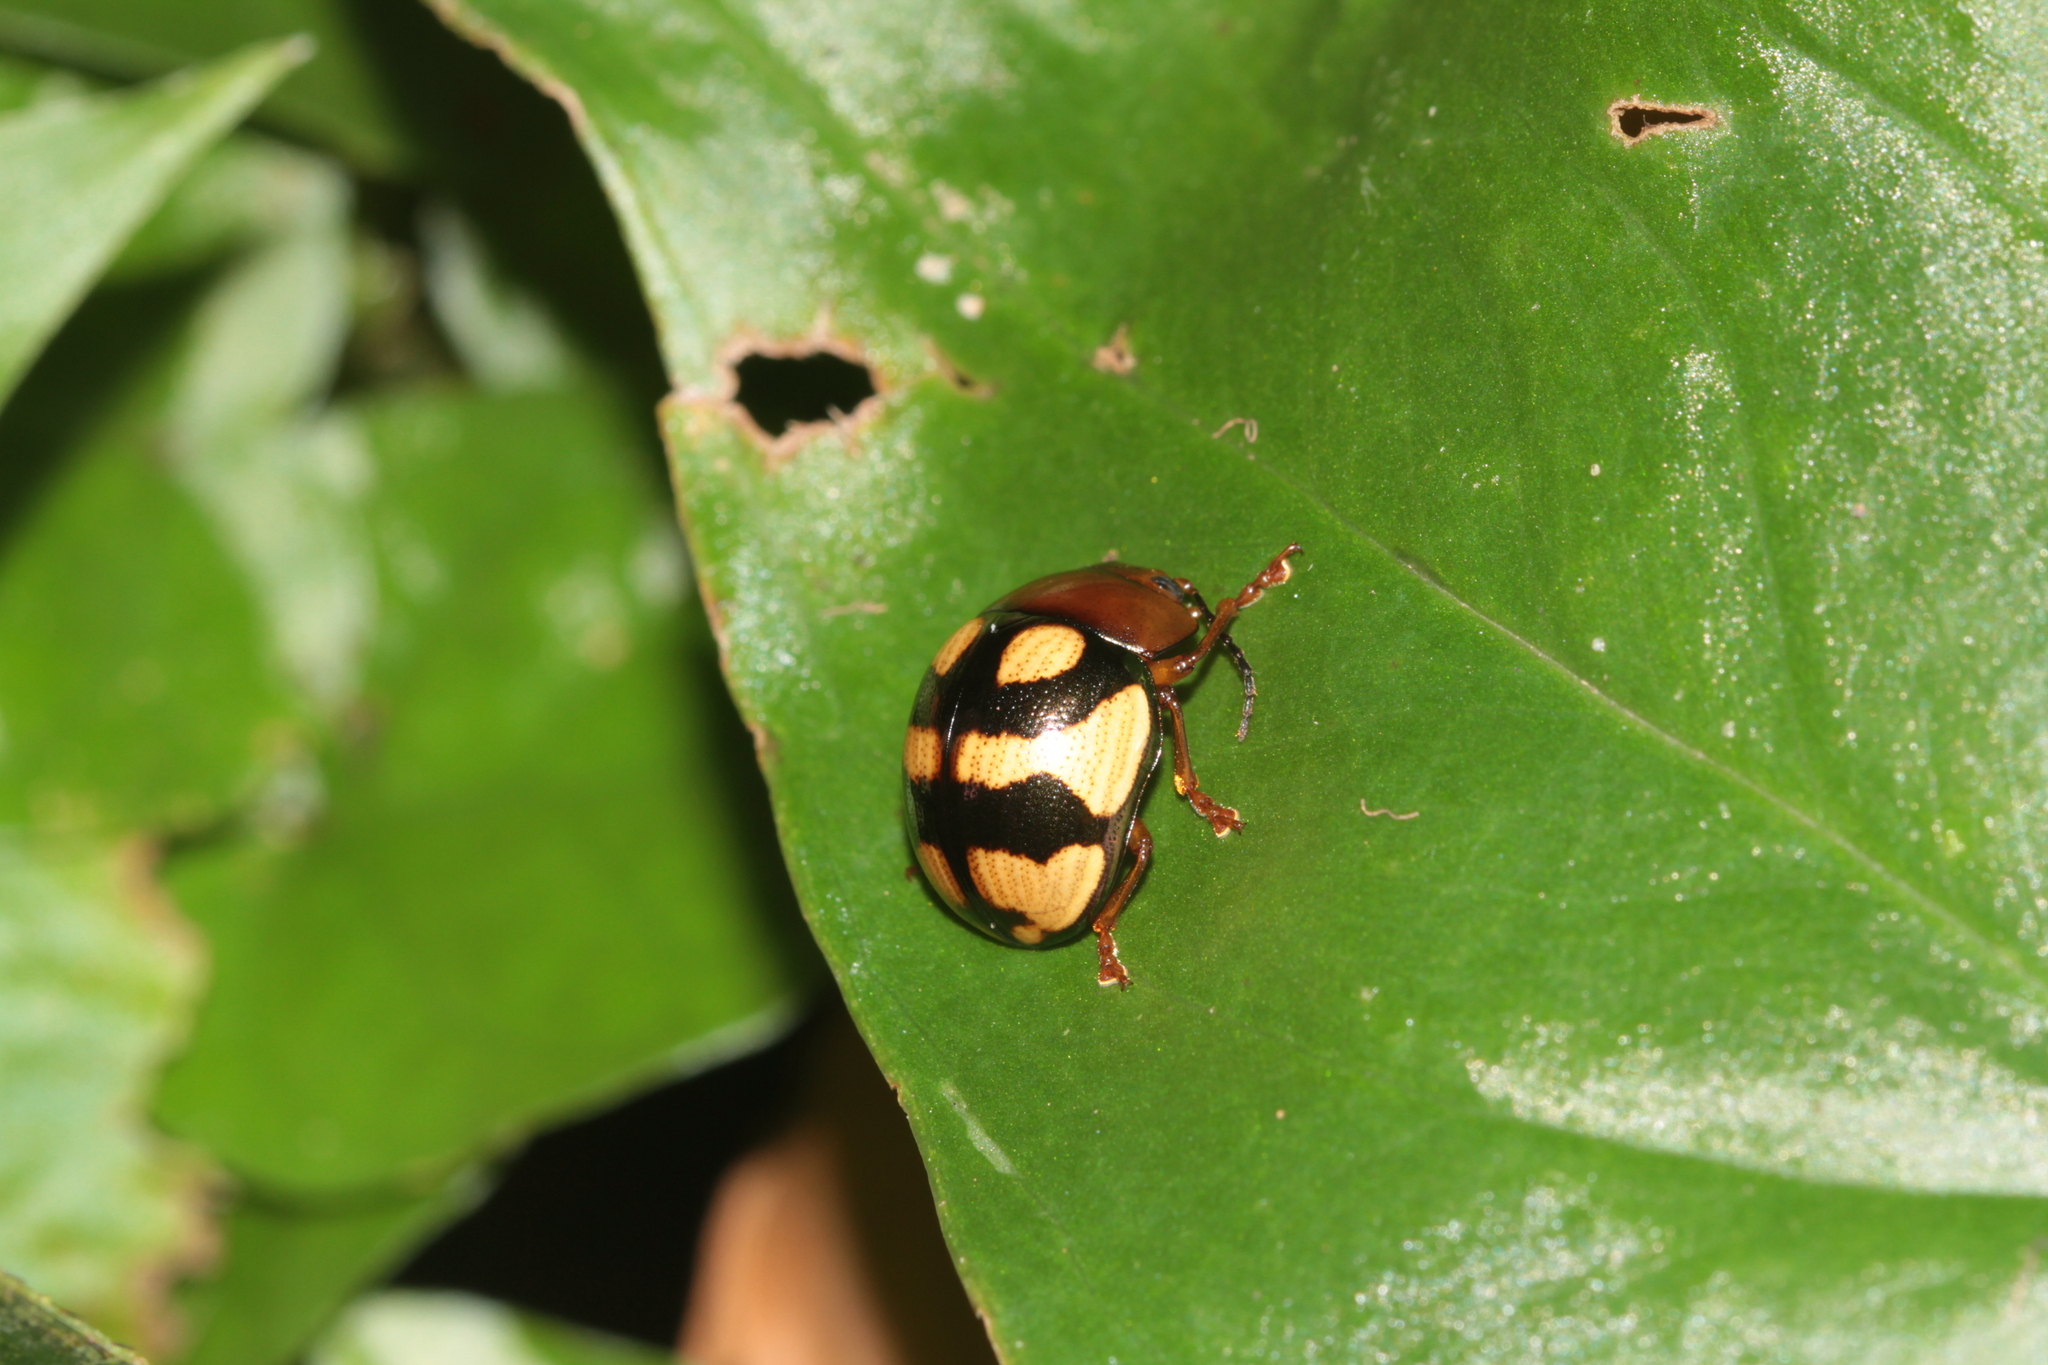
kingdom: Animalia
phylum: Arthropoda
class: Insecta
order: Coleoptera
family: Chrysomelidae
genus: Platyphora
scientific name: Platyphora angulata
